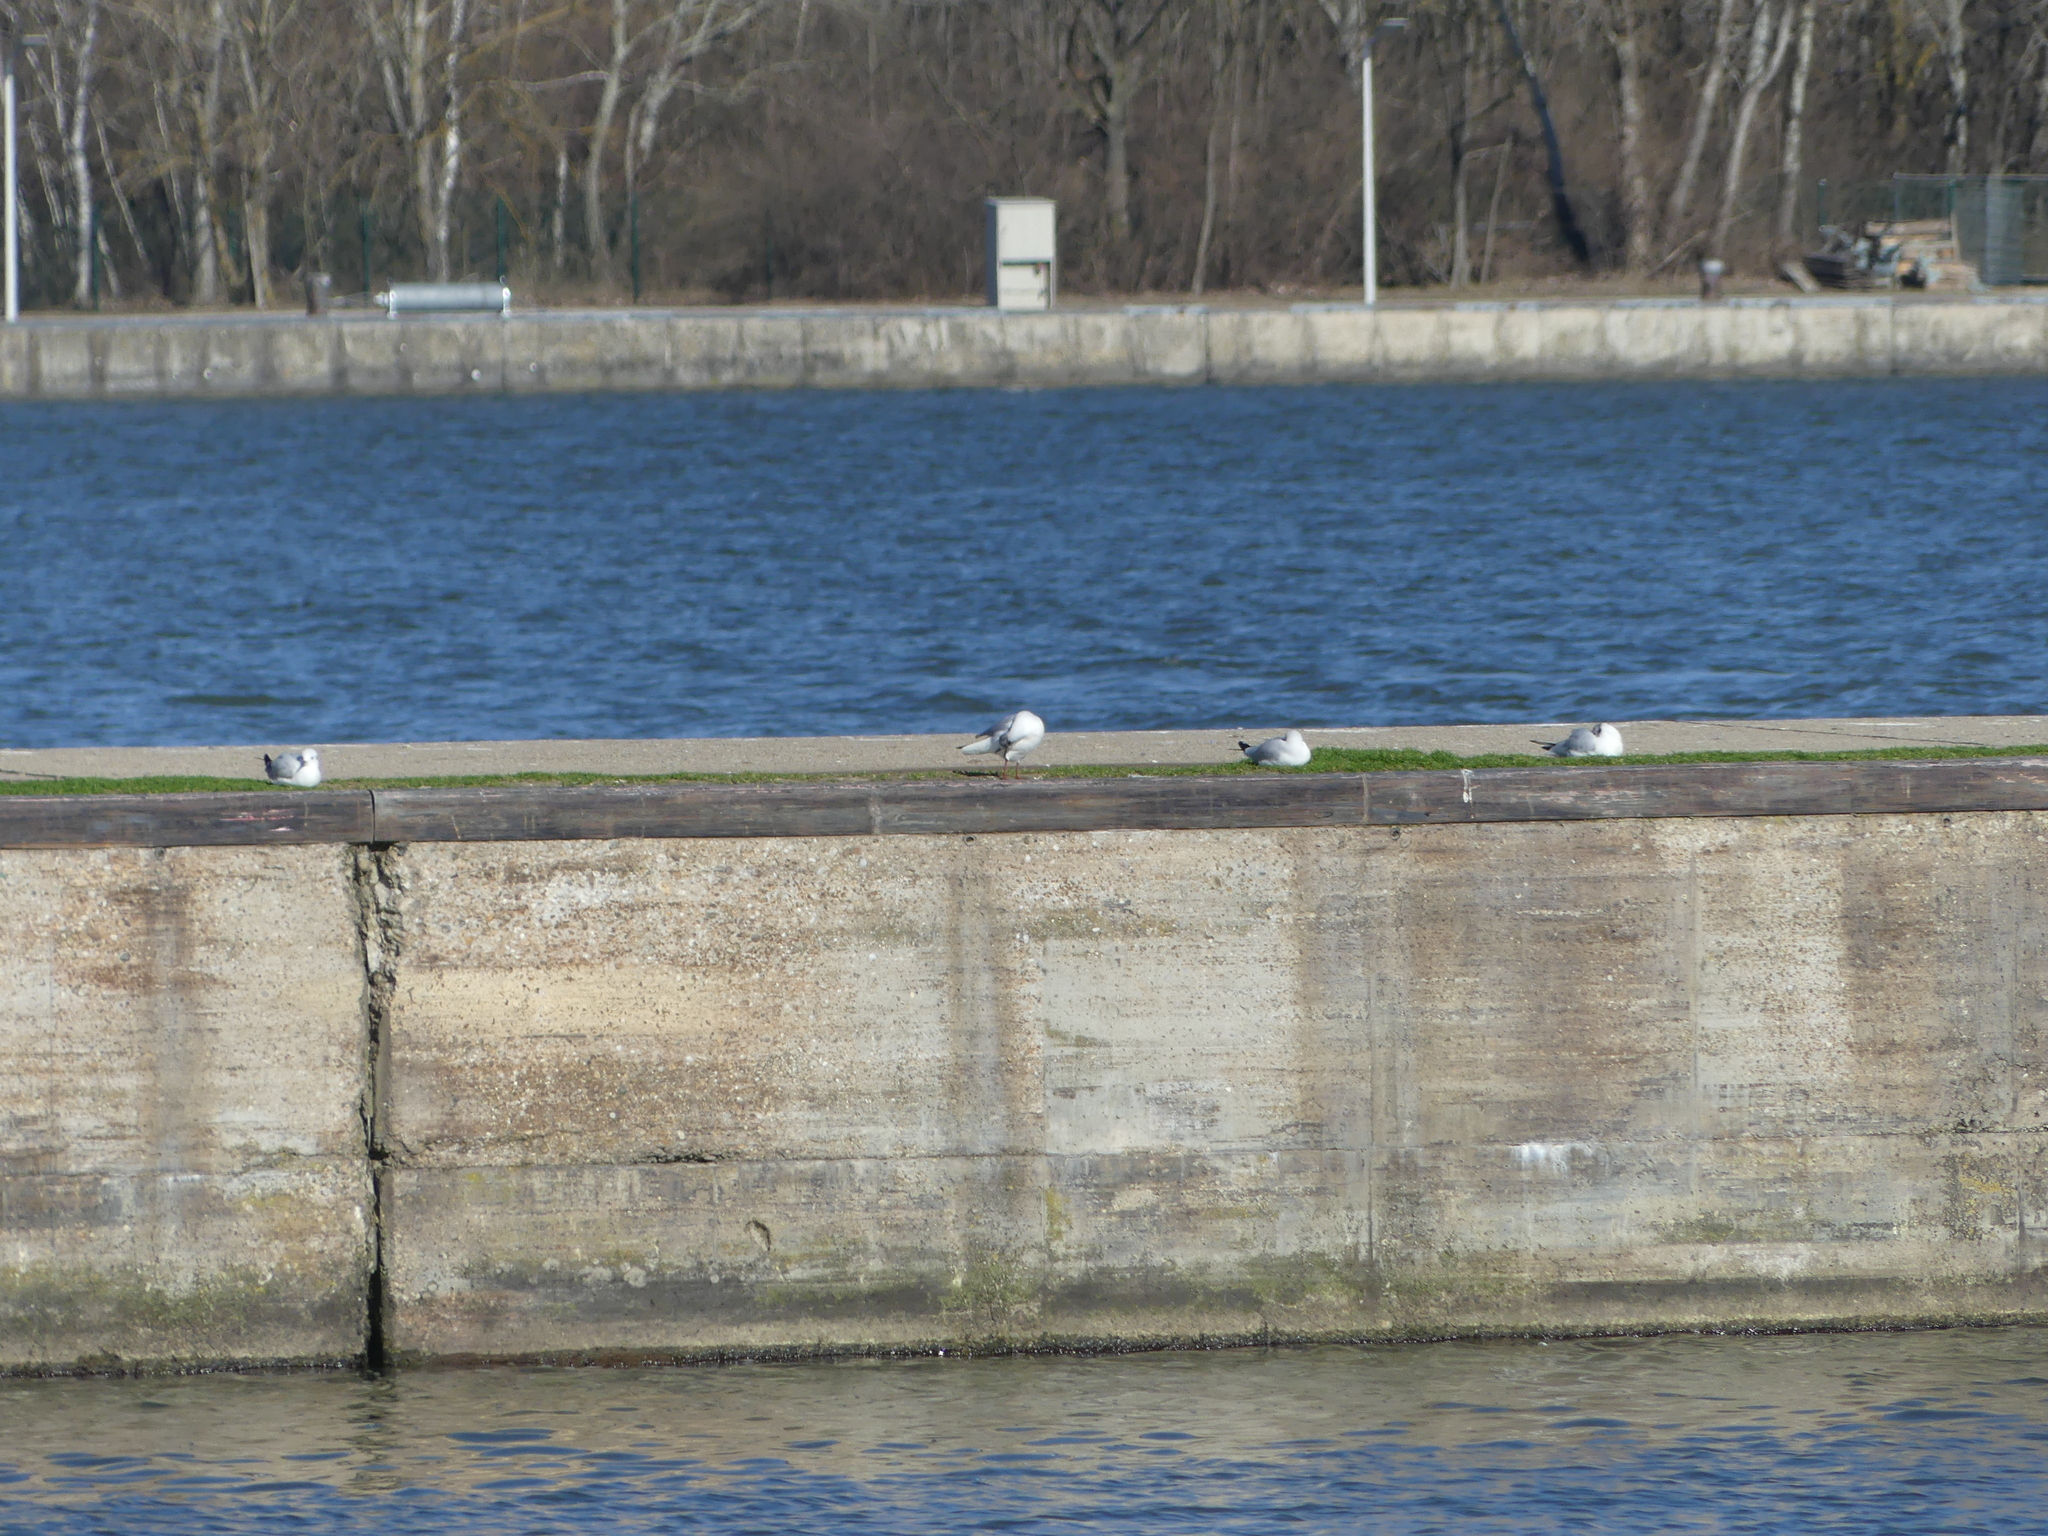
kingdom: Animalia
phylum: Chordata
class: Aves
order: Charadriiformes
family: Laridae
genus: Chroicocephalus
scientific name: Chroicocephalus ridibundus
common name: Black-headed gull
